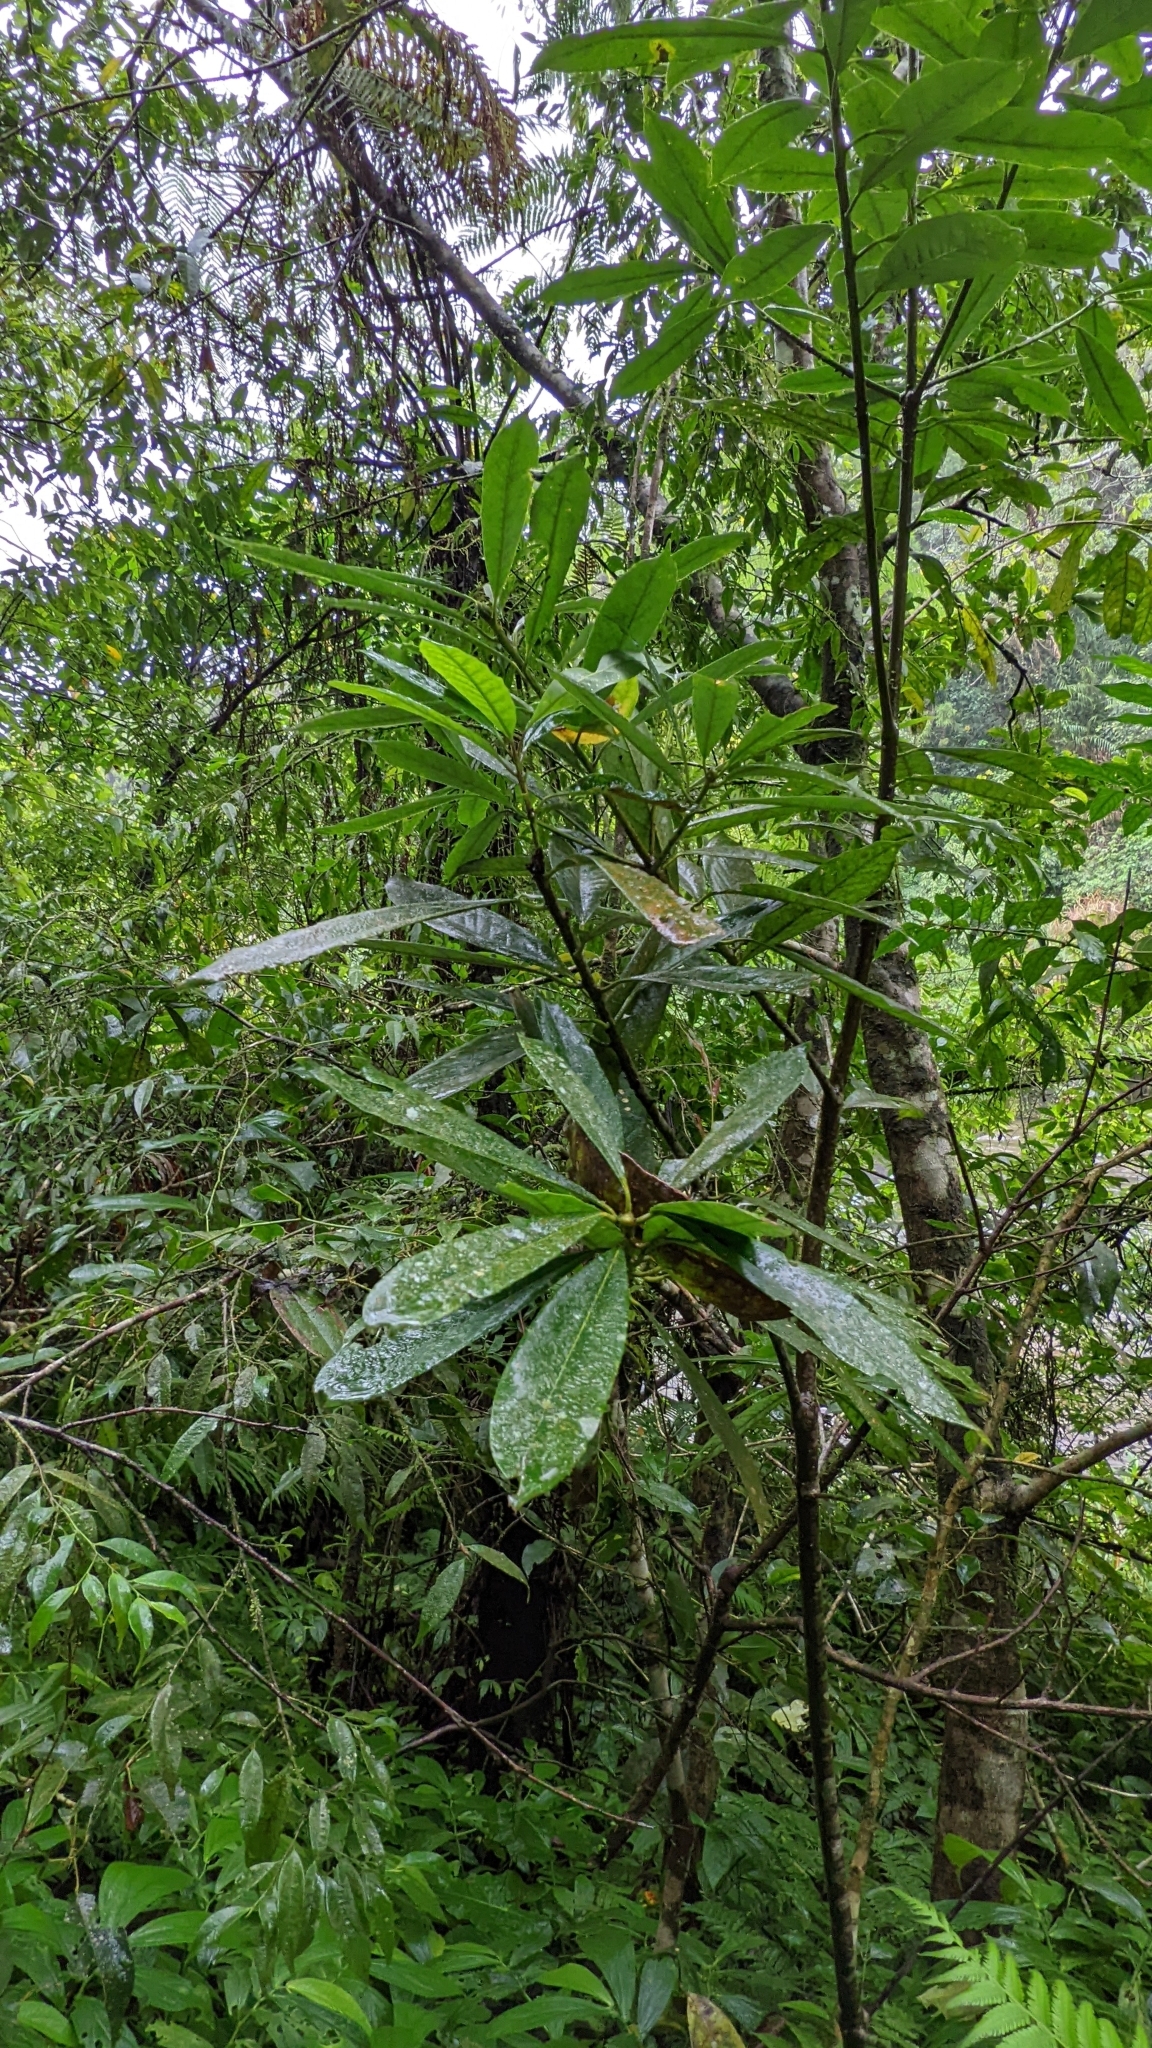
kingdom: Plantae
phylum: Tracheophyta
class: Magnoliopsida
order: Ericales
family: Symplocaceae
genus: Symplocos
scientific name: Symplocos glauca
